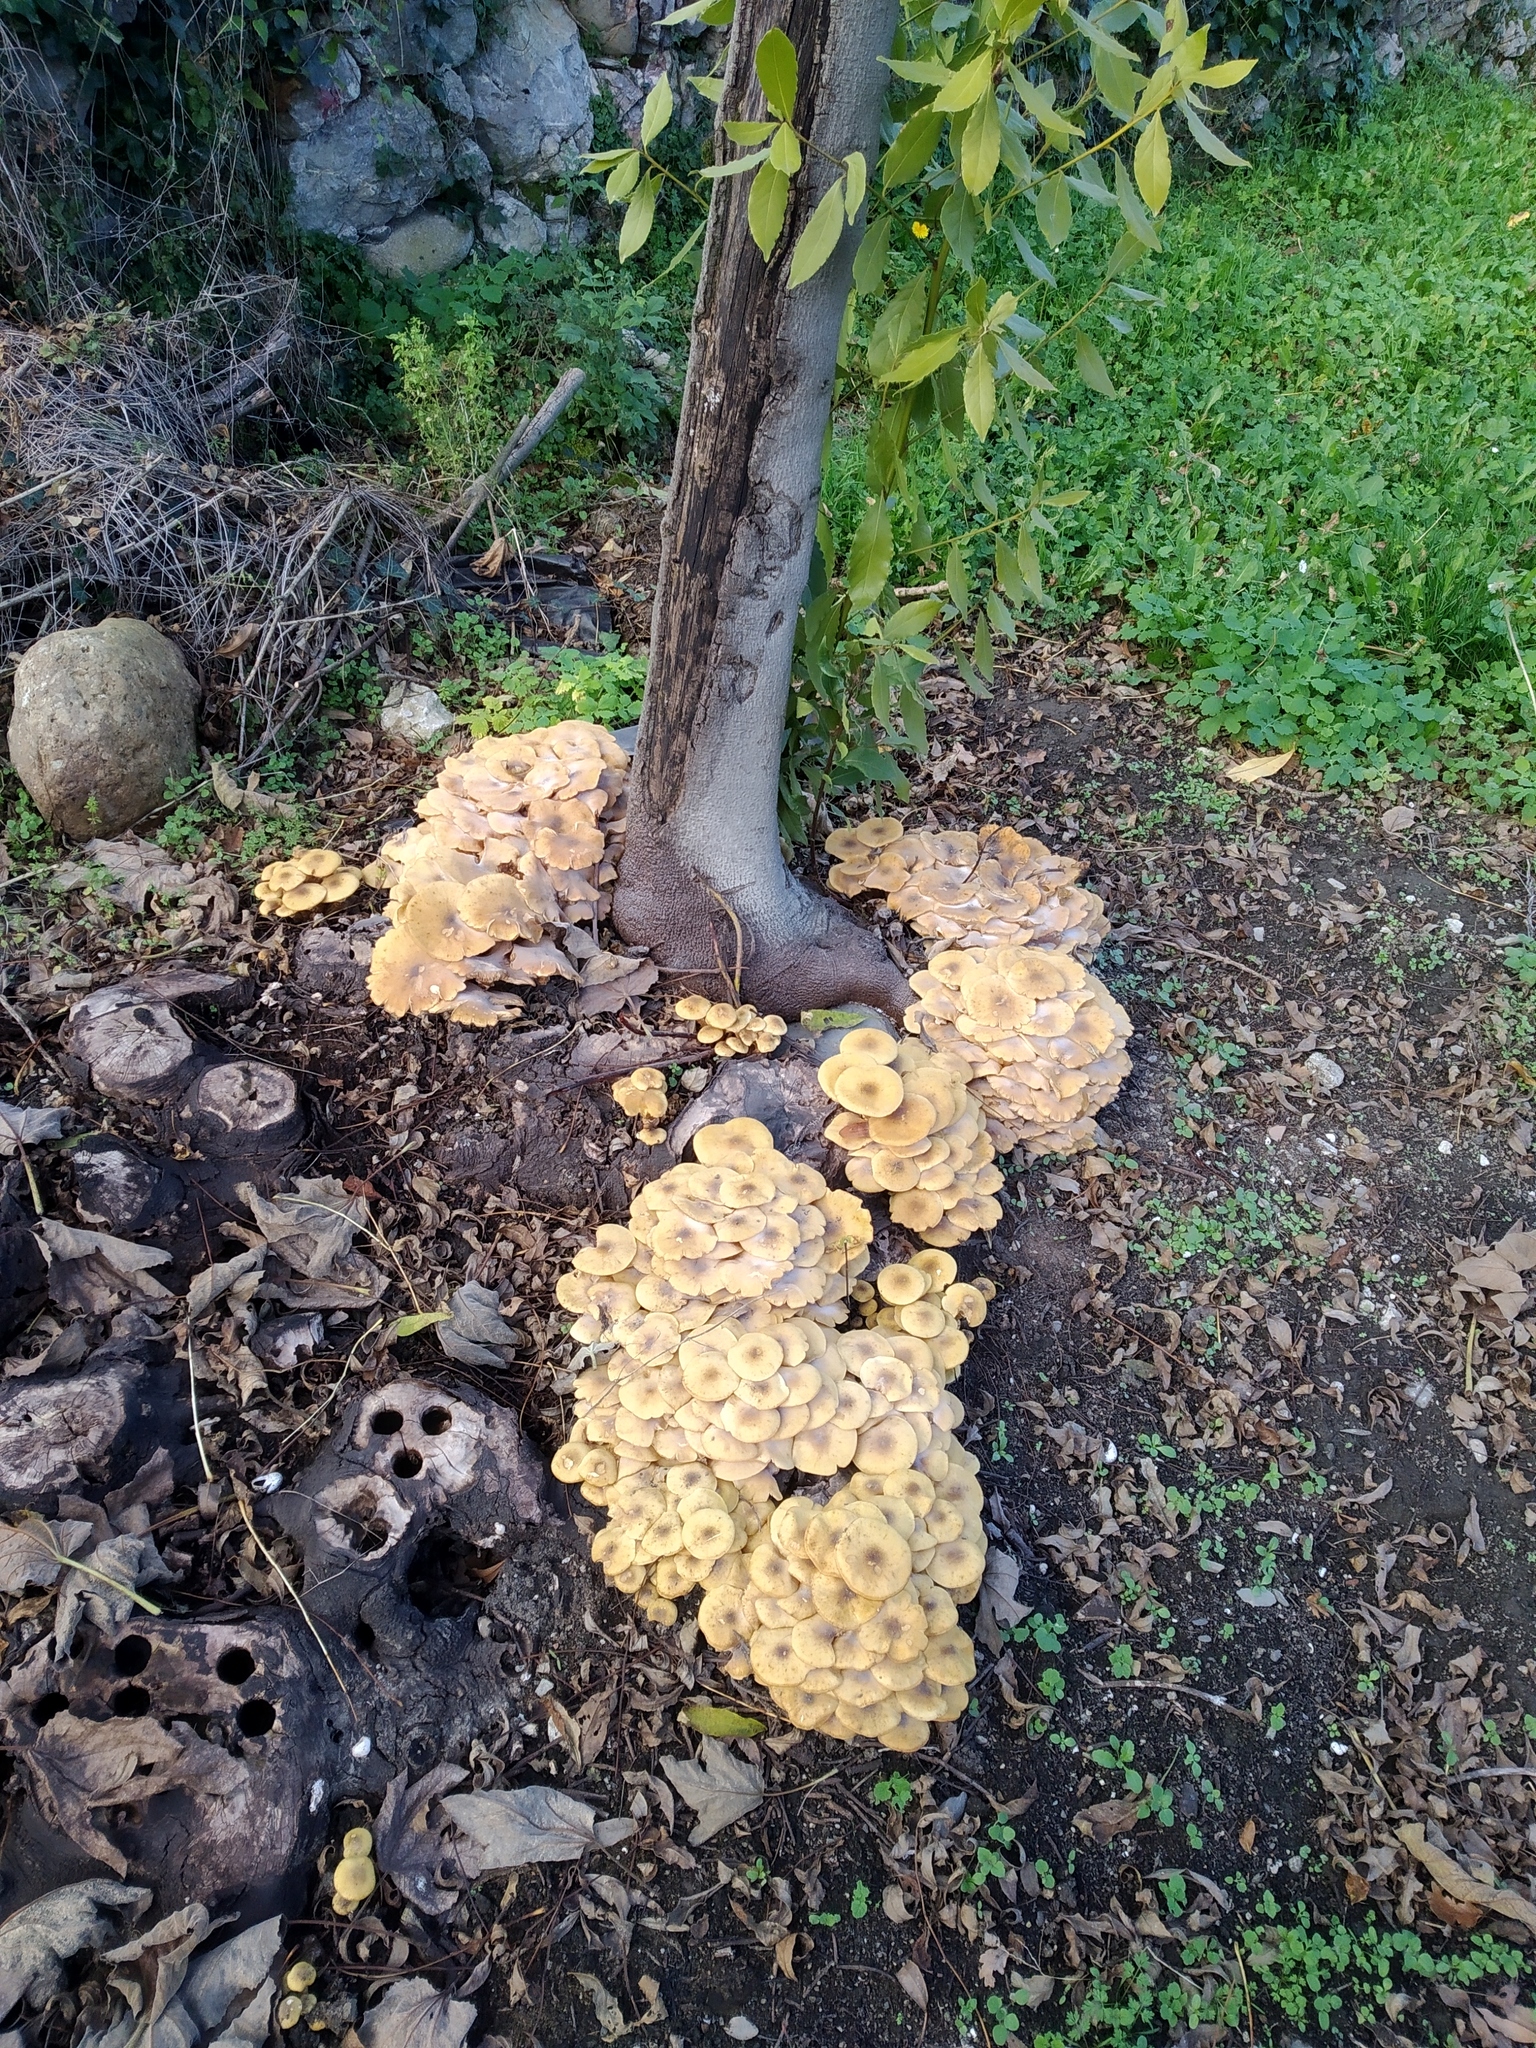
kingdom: Fungi
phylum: Basidiomycota
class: Agaricomycetes
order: Agaricales
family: Physalacriaceae
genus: Armillaria
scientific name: Armillaria mellea
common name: Honey fungus
